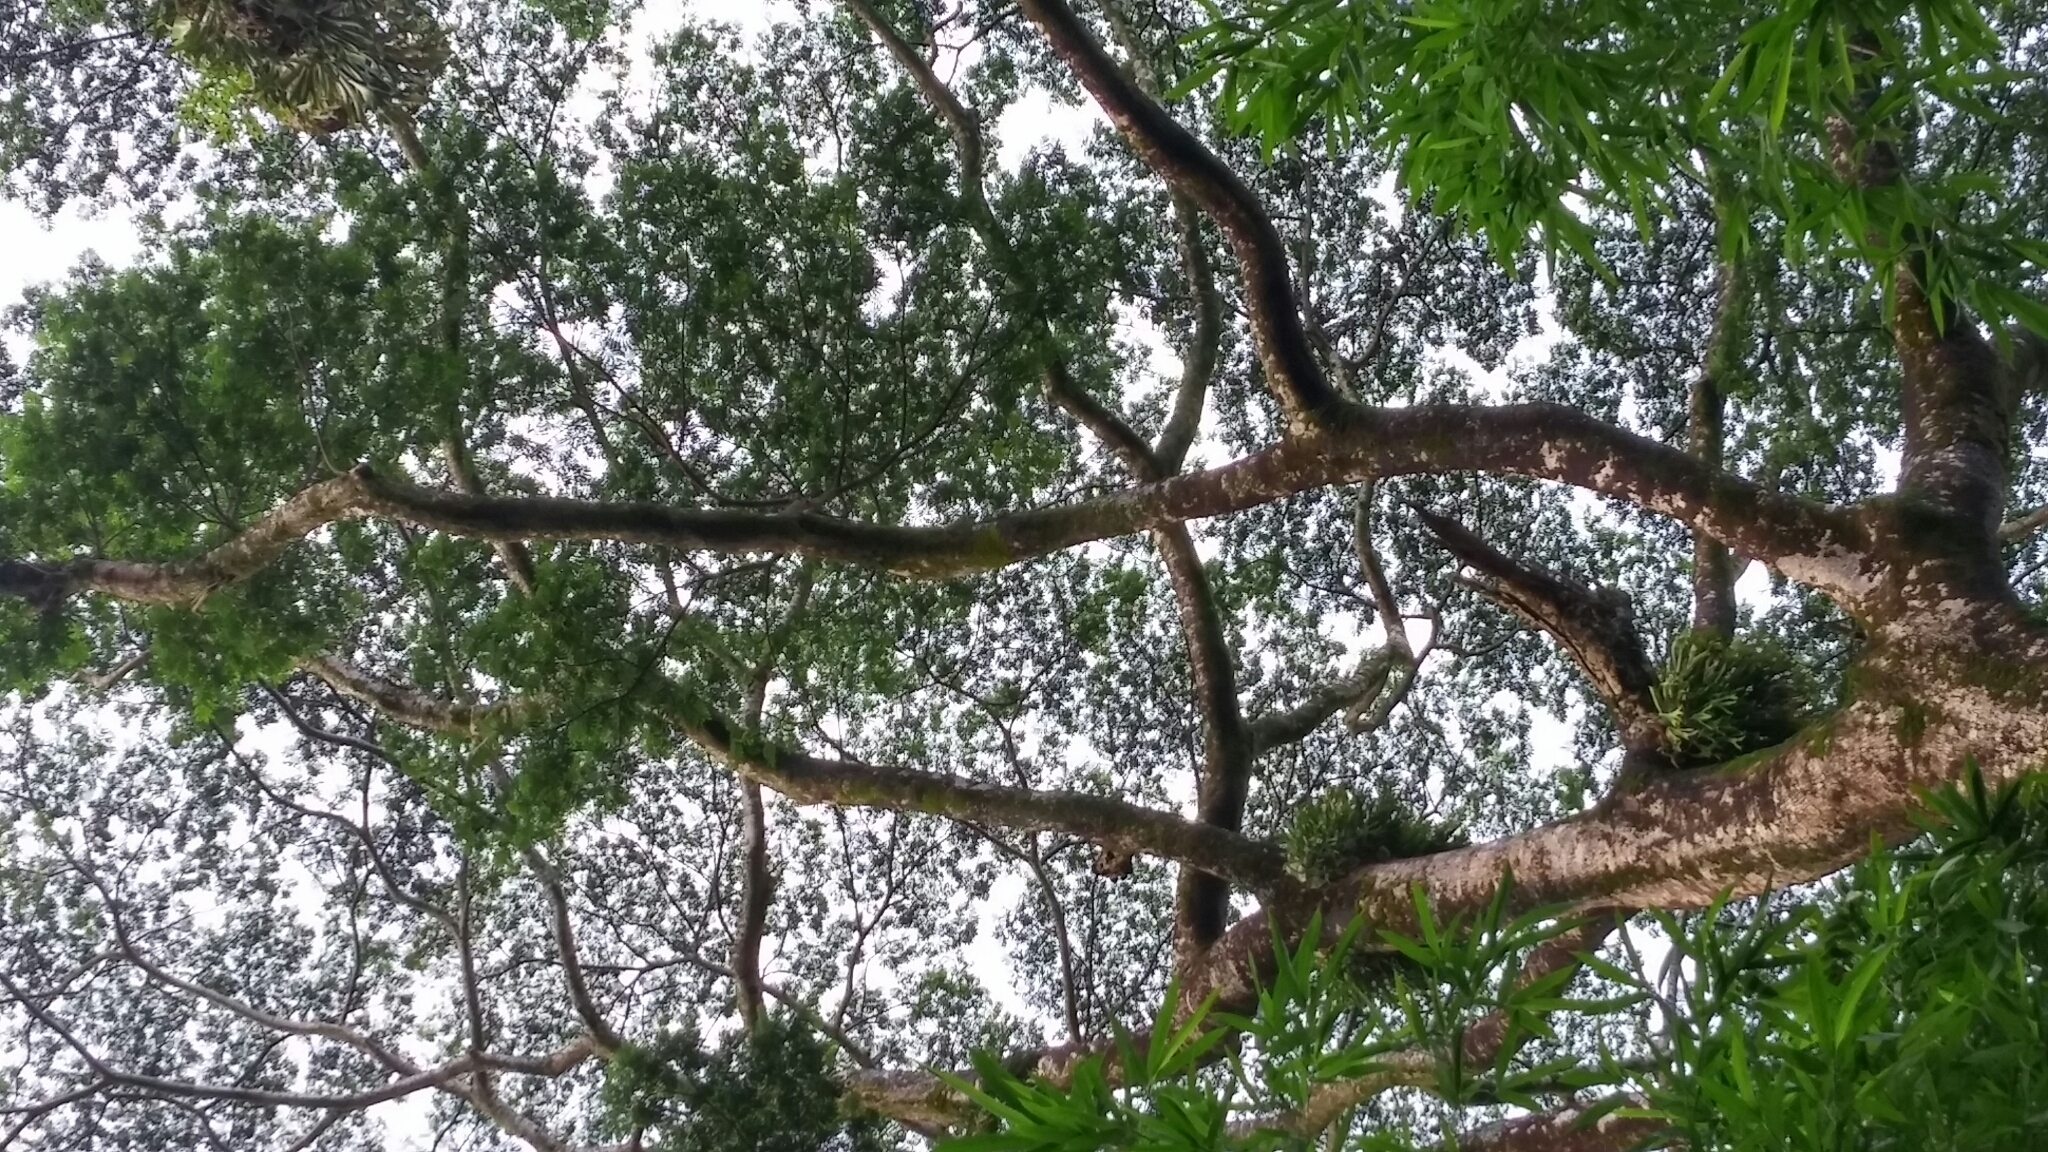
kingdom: Plantae
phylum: Tracheophyta
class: Magnoliopsida
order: Fabales
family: Fabaceae
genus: Falcataria
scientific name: Falcataria falcata
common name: Moluccan albizia
